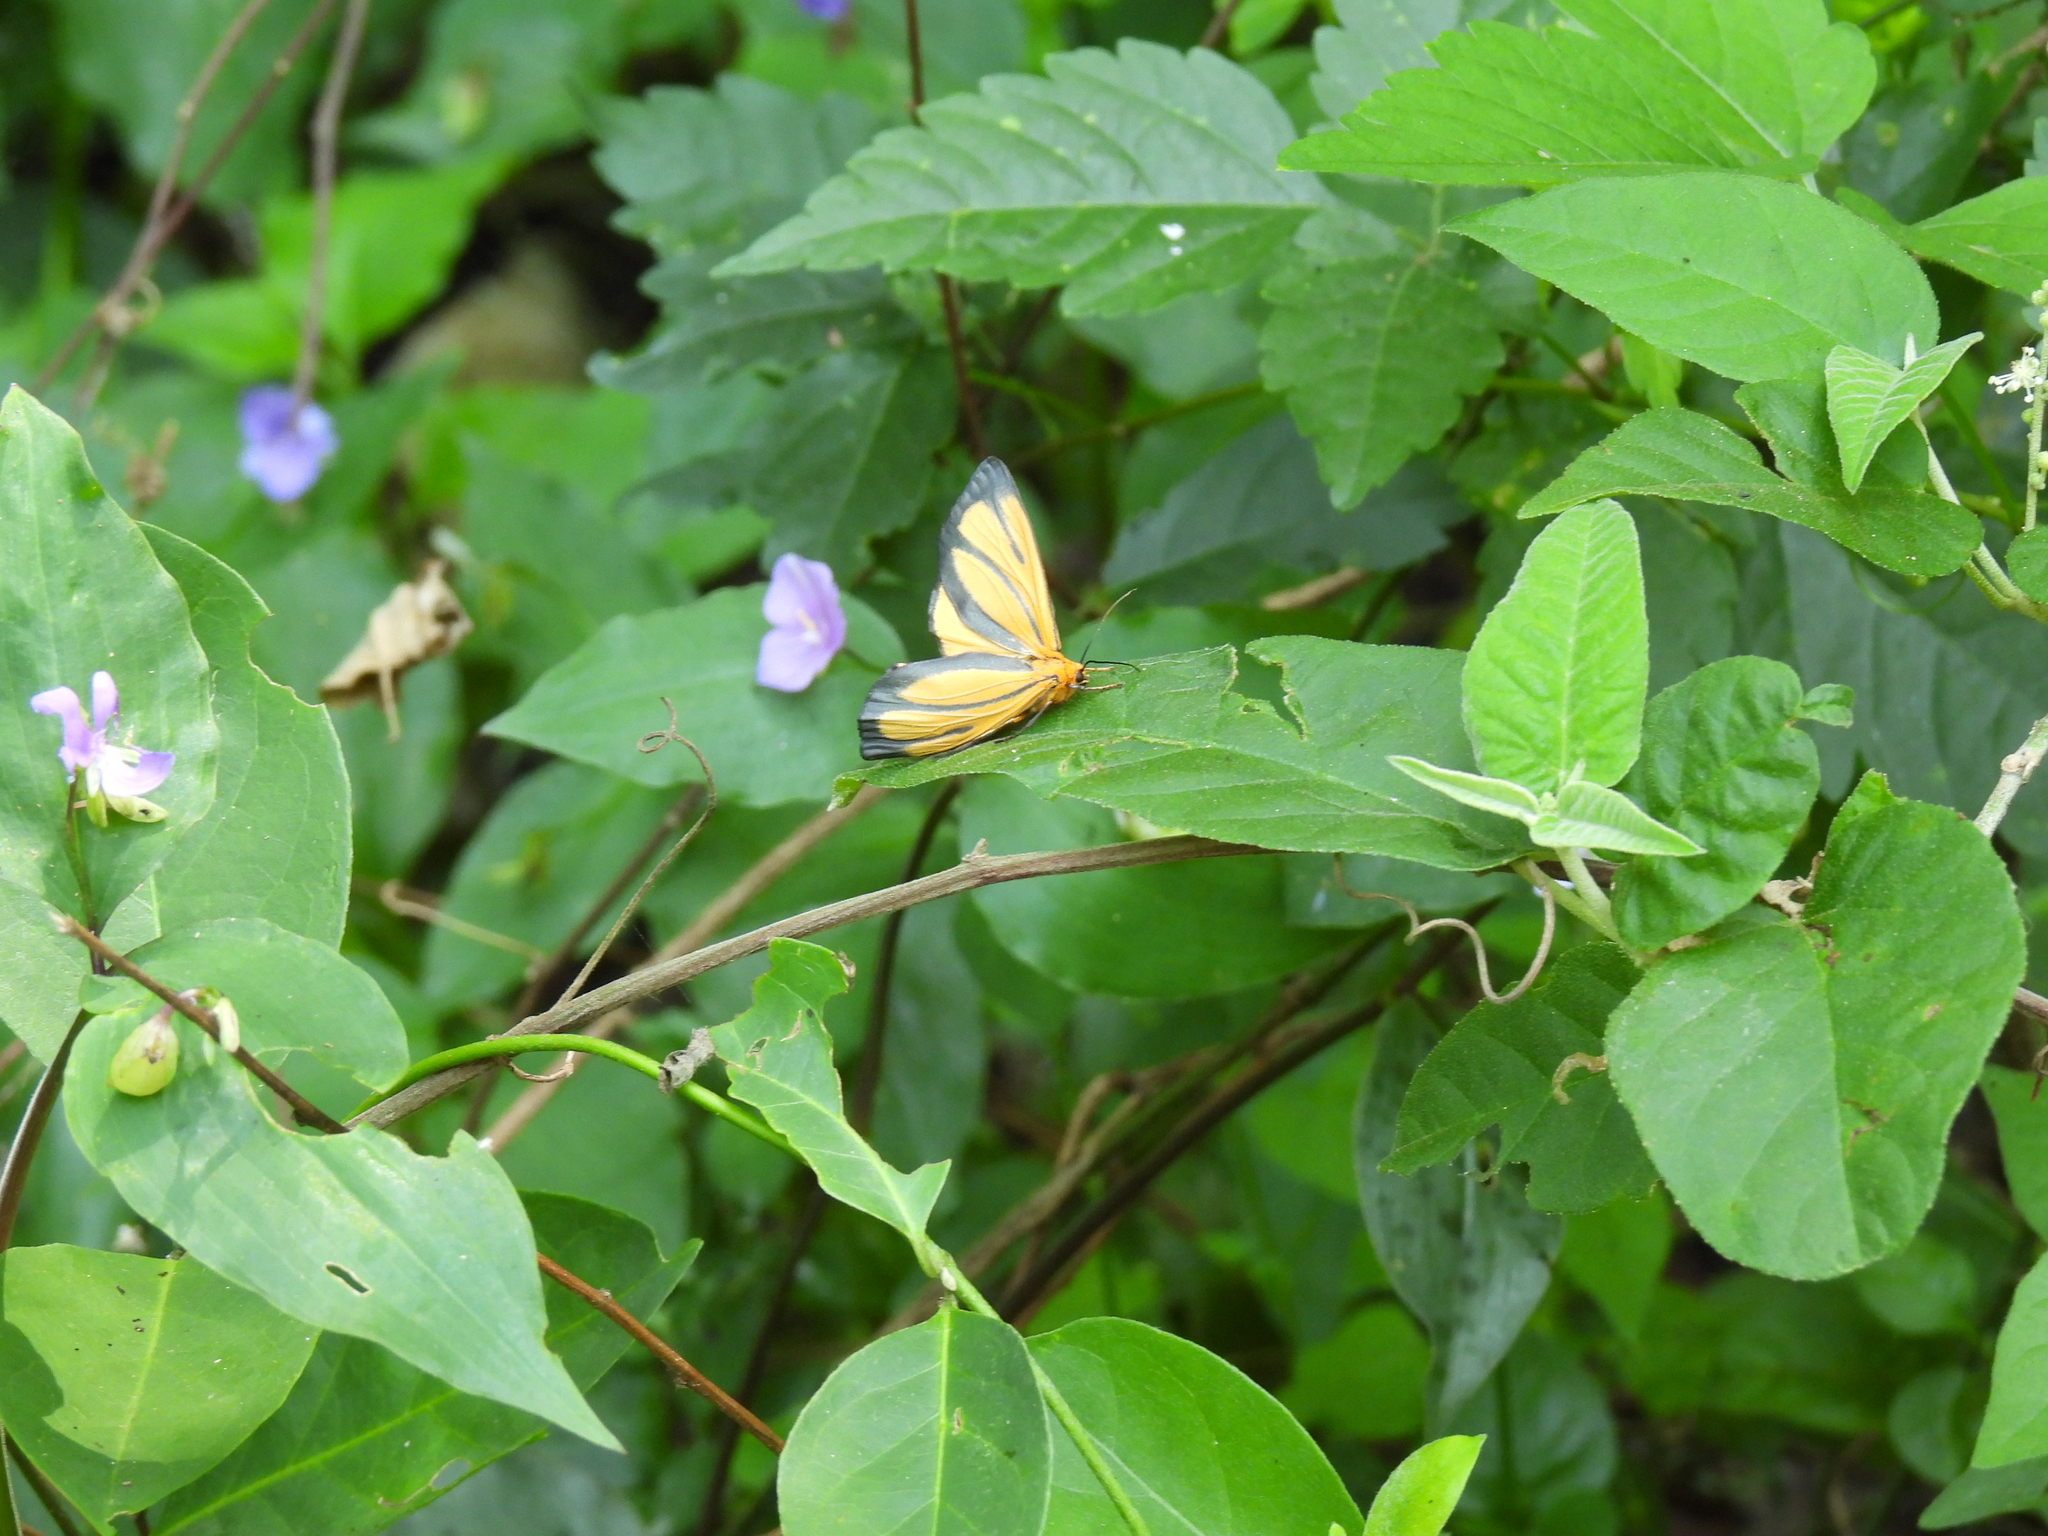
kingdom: Animalia
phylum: Arthropoda
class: Insecta
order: Lepidoptera
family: Erebidae
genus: Eurylomia
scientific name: Eurylomia cordula
